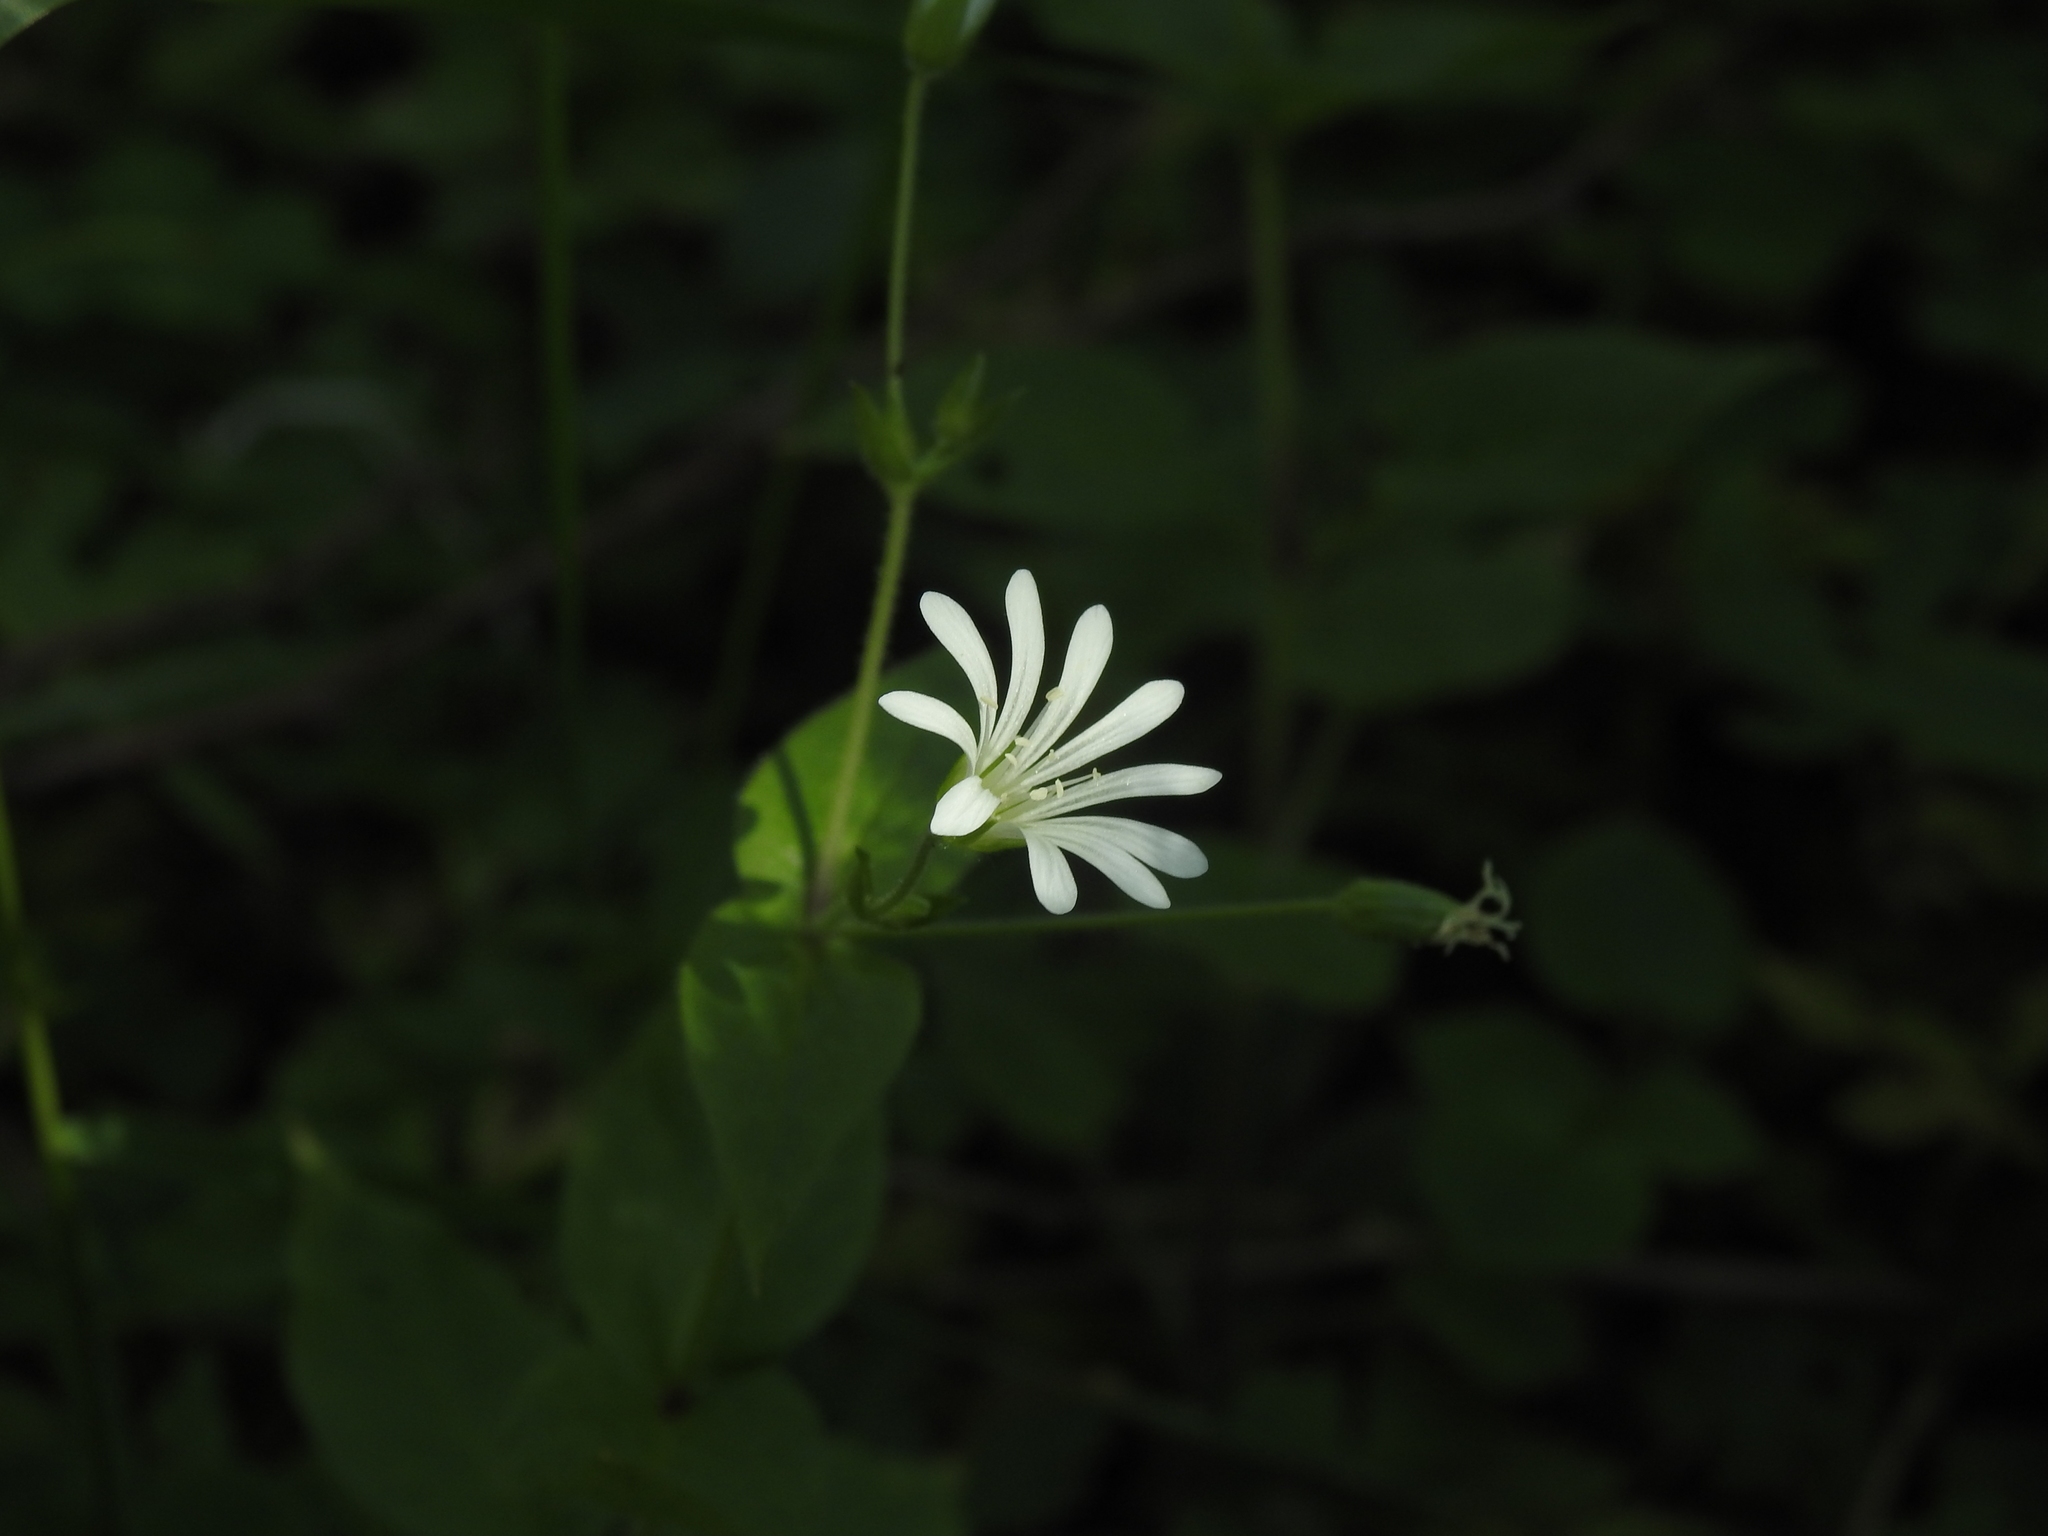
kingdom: Plantae
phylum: Tracheophyta
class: Magnoliopsida
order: Caryophyllales
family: Caryophyllaceae
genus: Stellaria
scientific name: Stellaria nemorum
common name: Wood stitchwort
